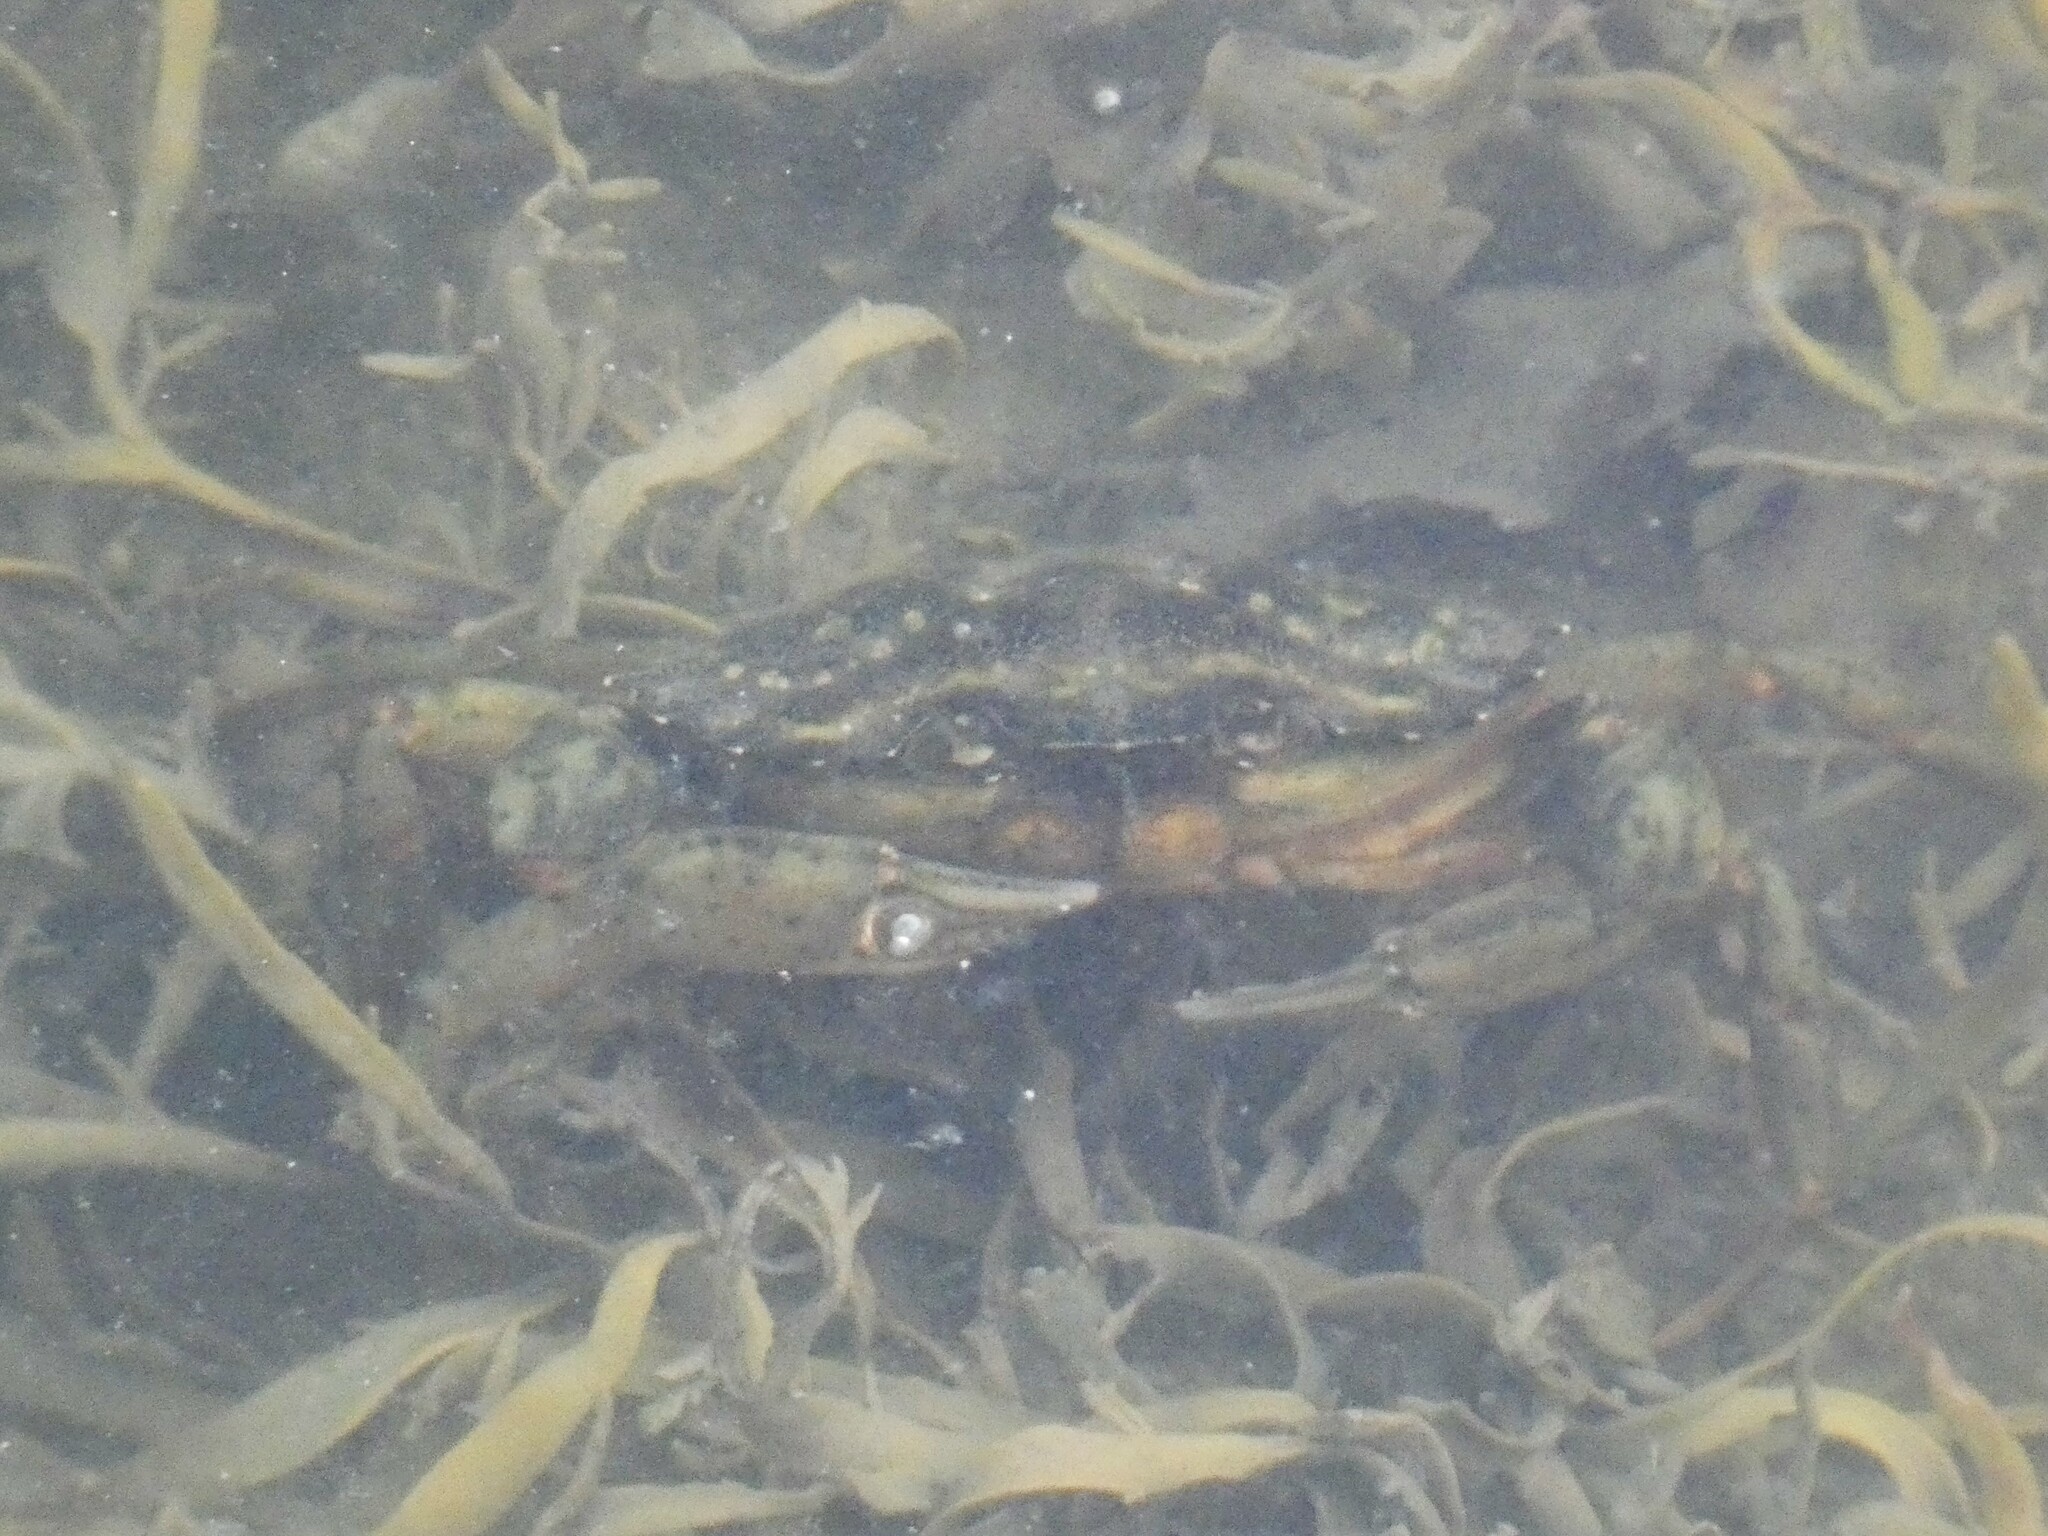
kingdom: Animalia
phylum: Arthropoda
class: Malacostraca
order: Decapoda
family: Carcinidae
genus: Carcinus
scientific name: Carcinus maenas
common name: European green crab
